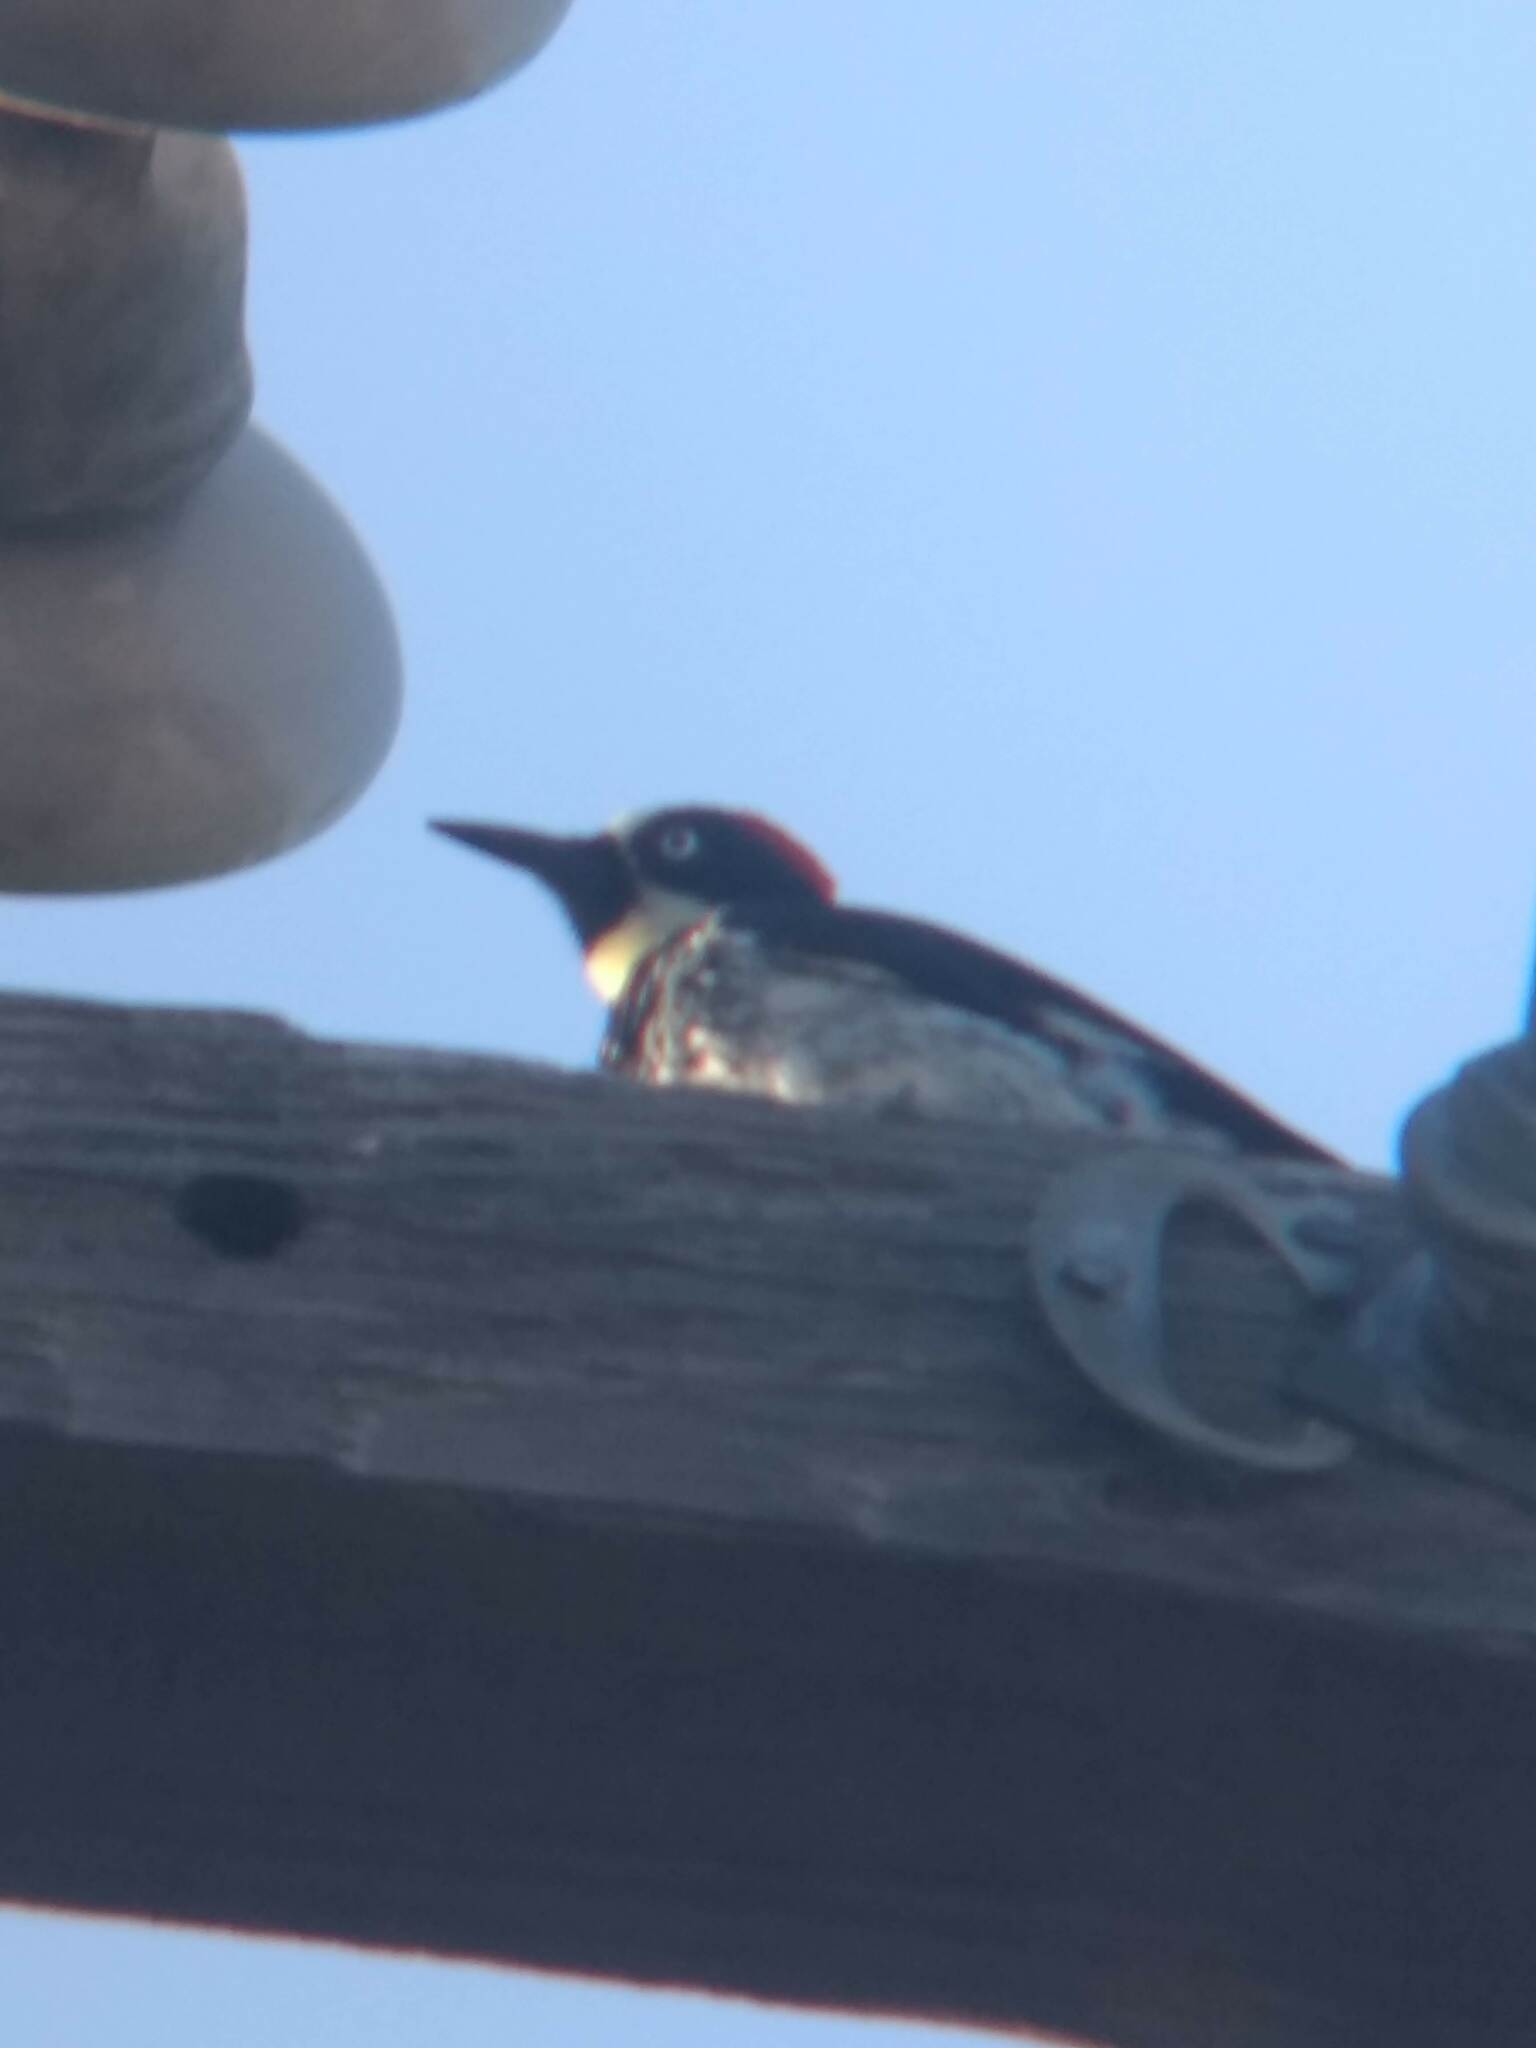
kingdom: Animalia
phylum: Chordata
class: Aves
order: Piciformes
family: Picidae
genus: Melanerpes
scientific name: Melanerpes formicivorus
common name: Acorn woodpecker
